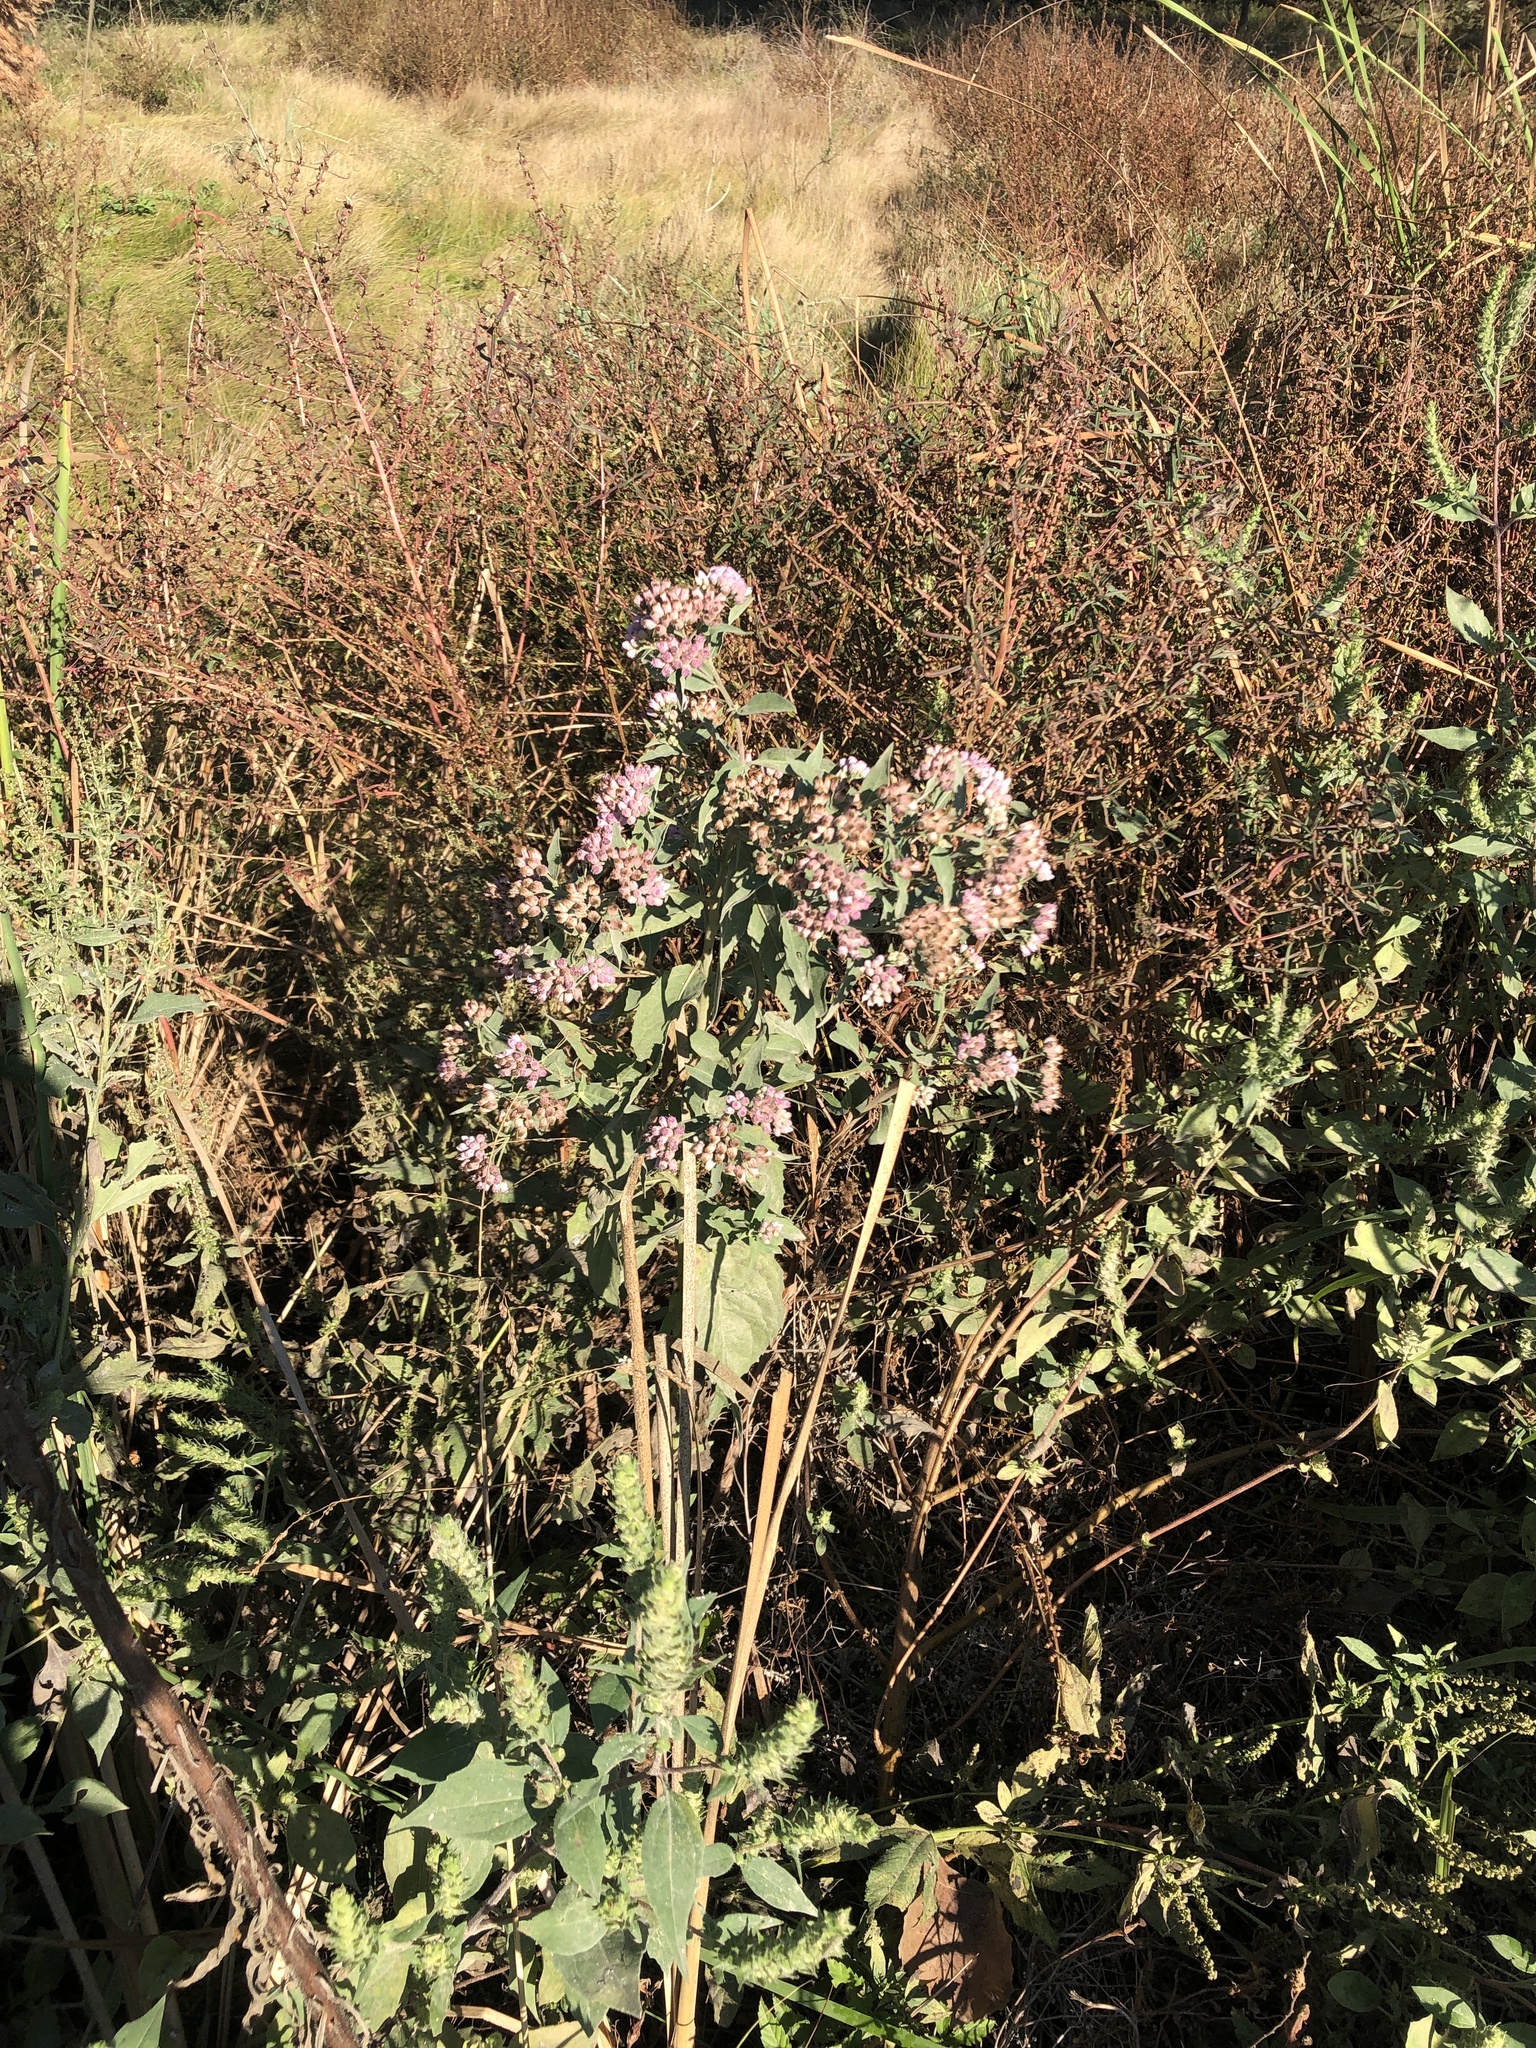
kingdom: Plantae
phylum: Tracheophyta
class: Magnoliopsida
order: Asterales
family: Asteraceae
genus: Pluchea
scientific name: Pluchea odorata
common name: Saltmarsh fleabane
